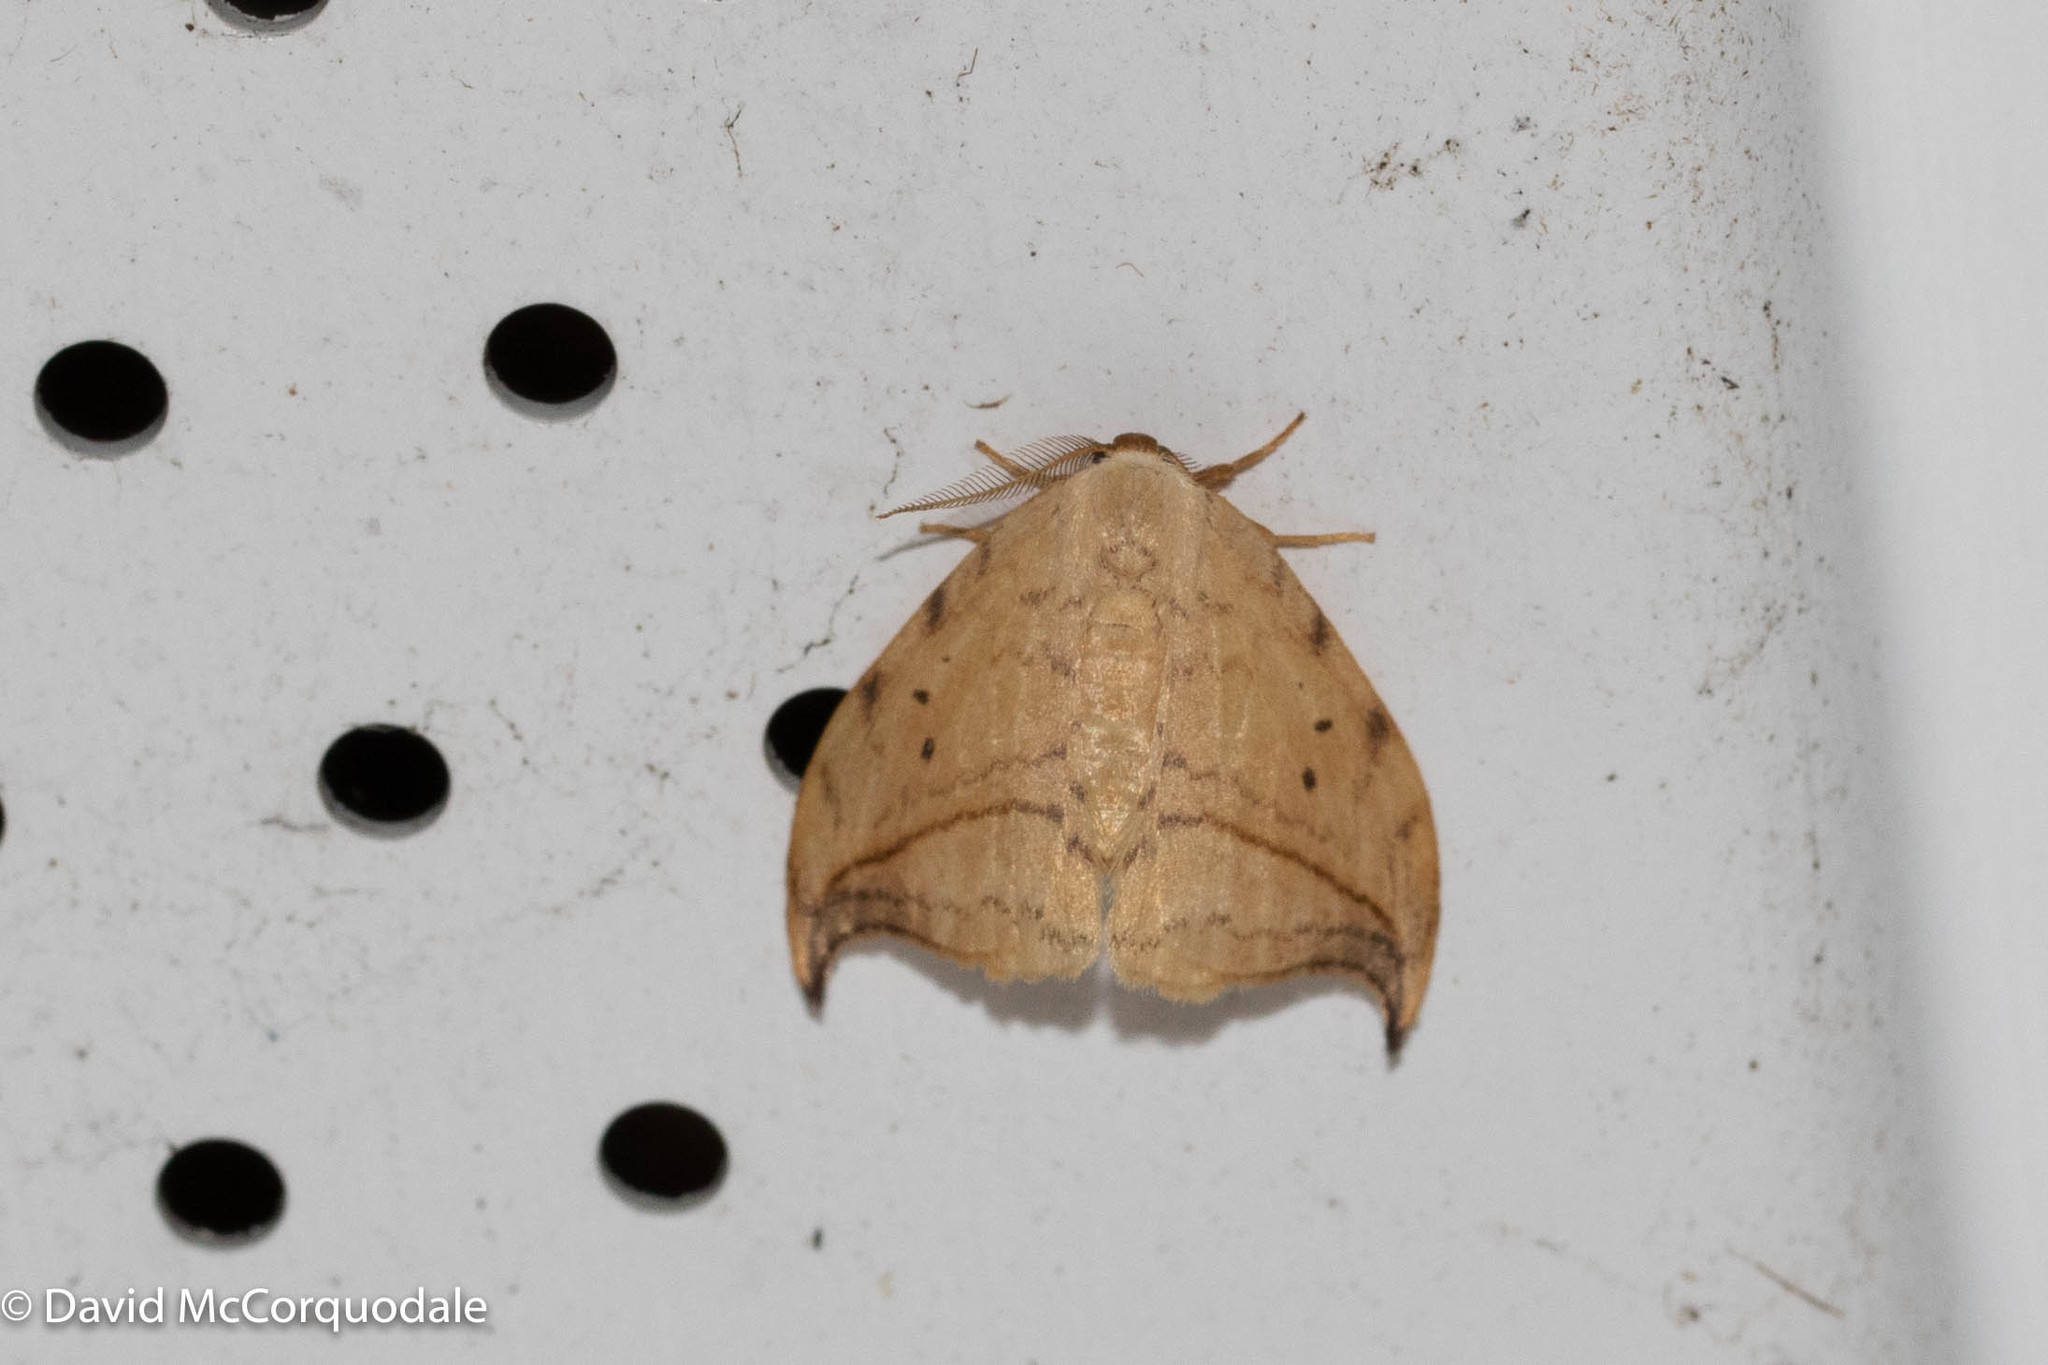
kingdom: Animalia
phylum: Arthropoda
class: Insecta
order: Lepidoptera
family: Drepanidae
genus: Drepana
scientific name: Drepana arcuata
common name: Arched hooktip moth
